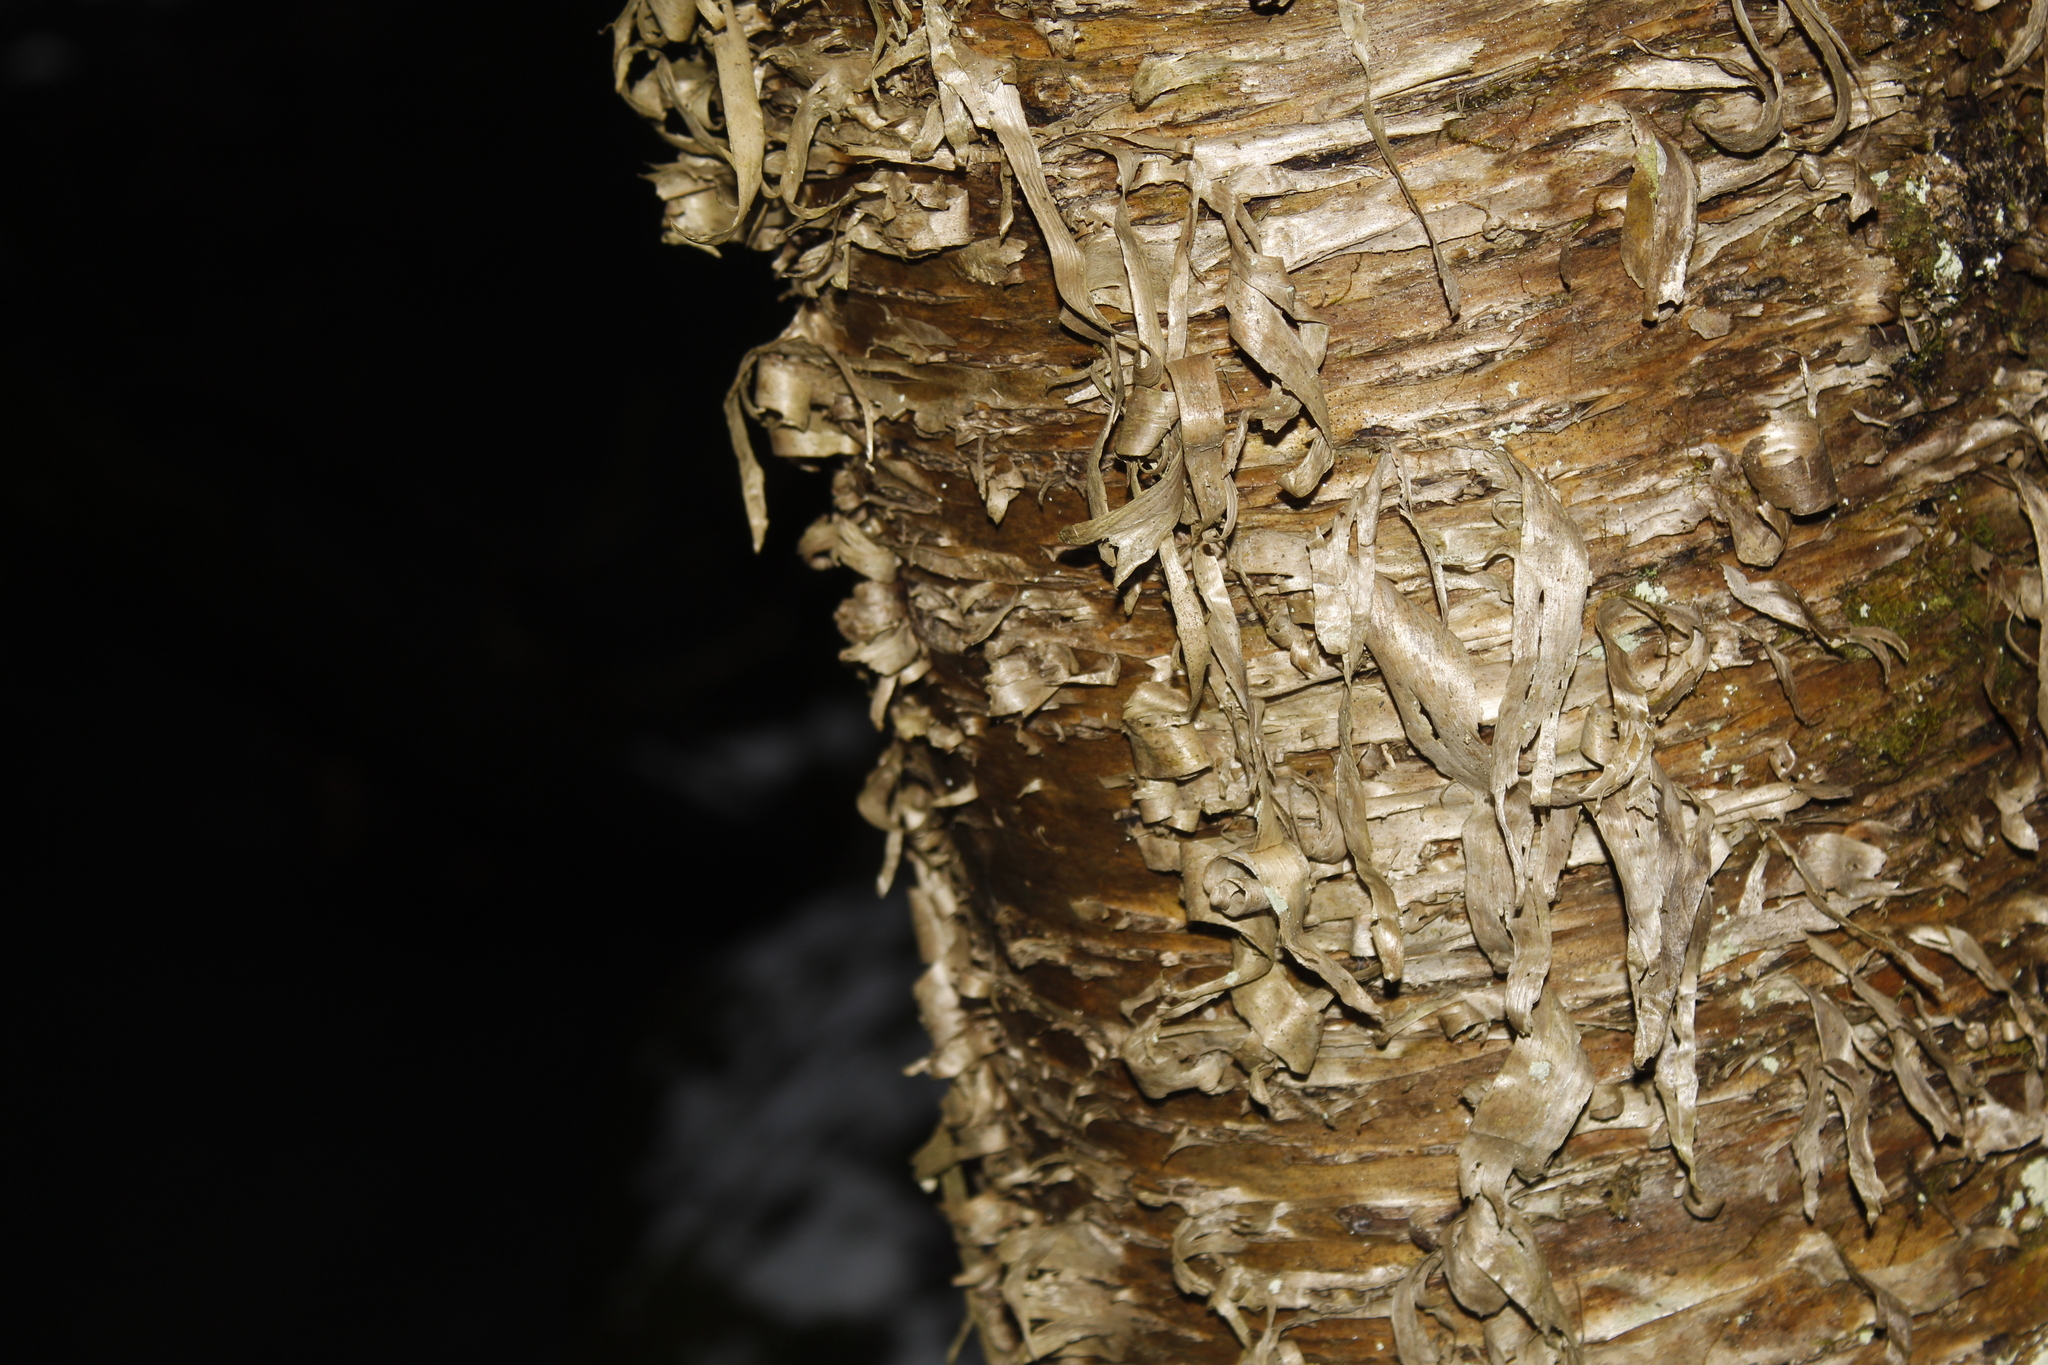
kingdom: Plantae
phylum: Tracheophyta
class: Magnoliopsida
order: Fagales
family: Betulaceae
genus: Betula
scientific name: Betula alleghaniensis
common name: Yellow birch
